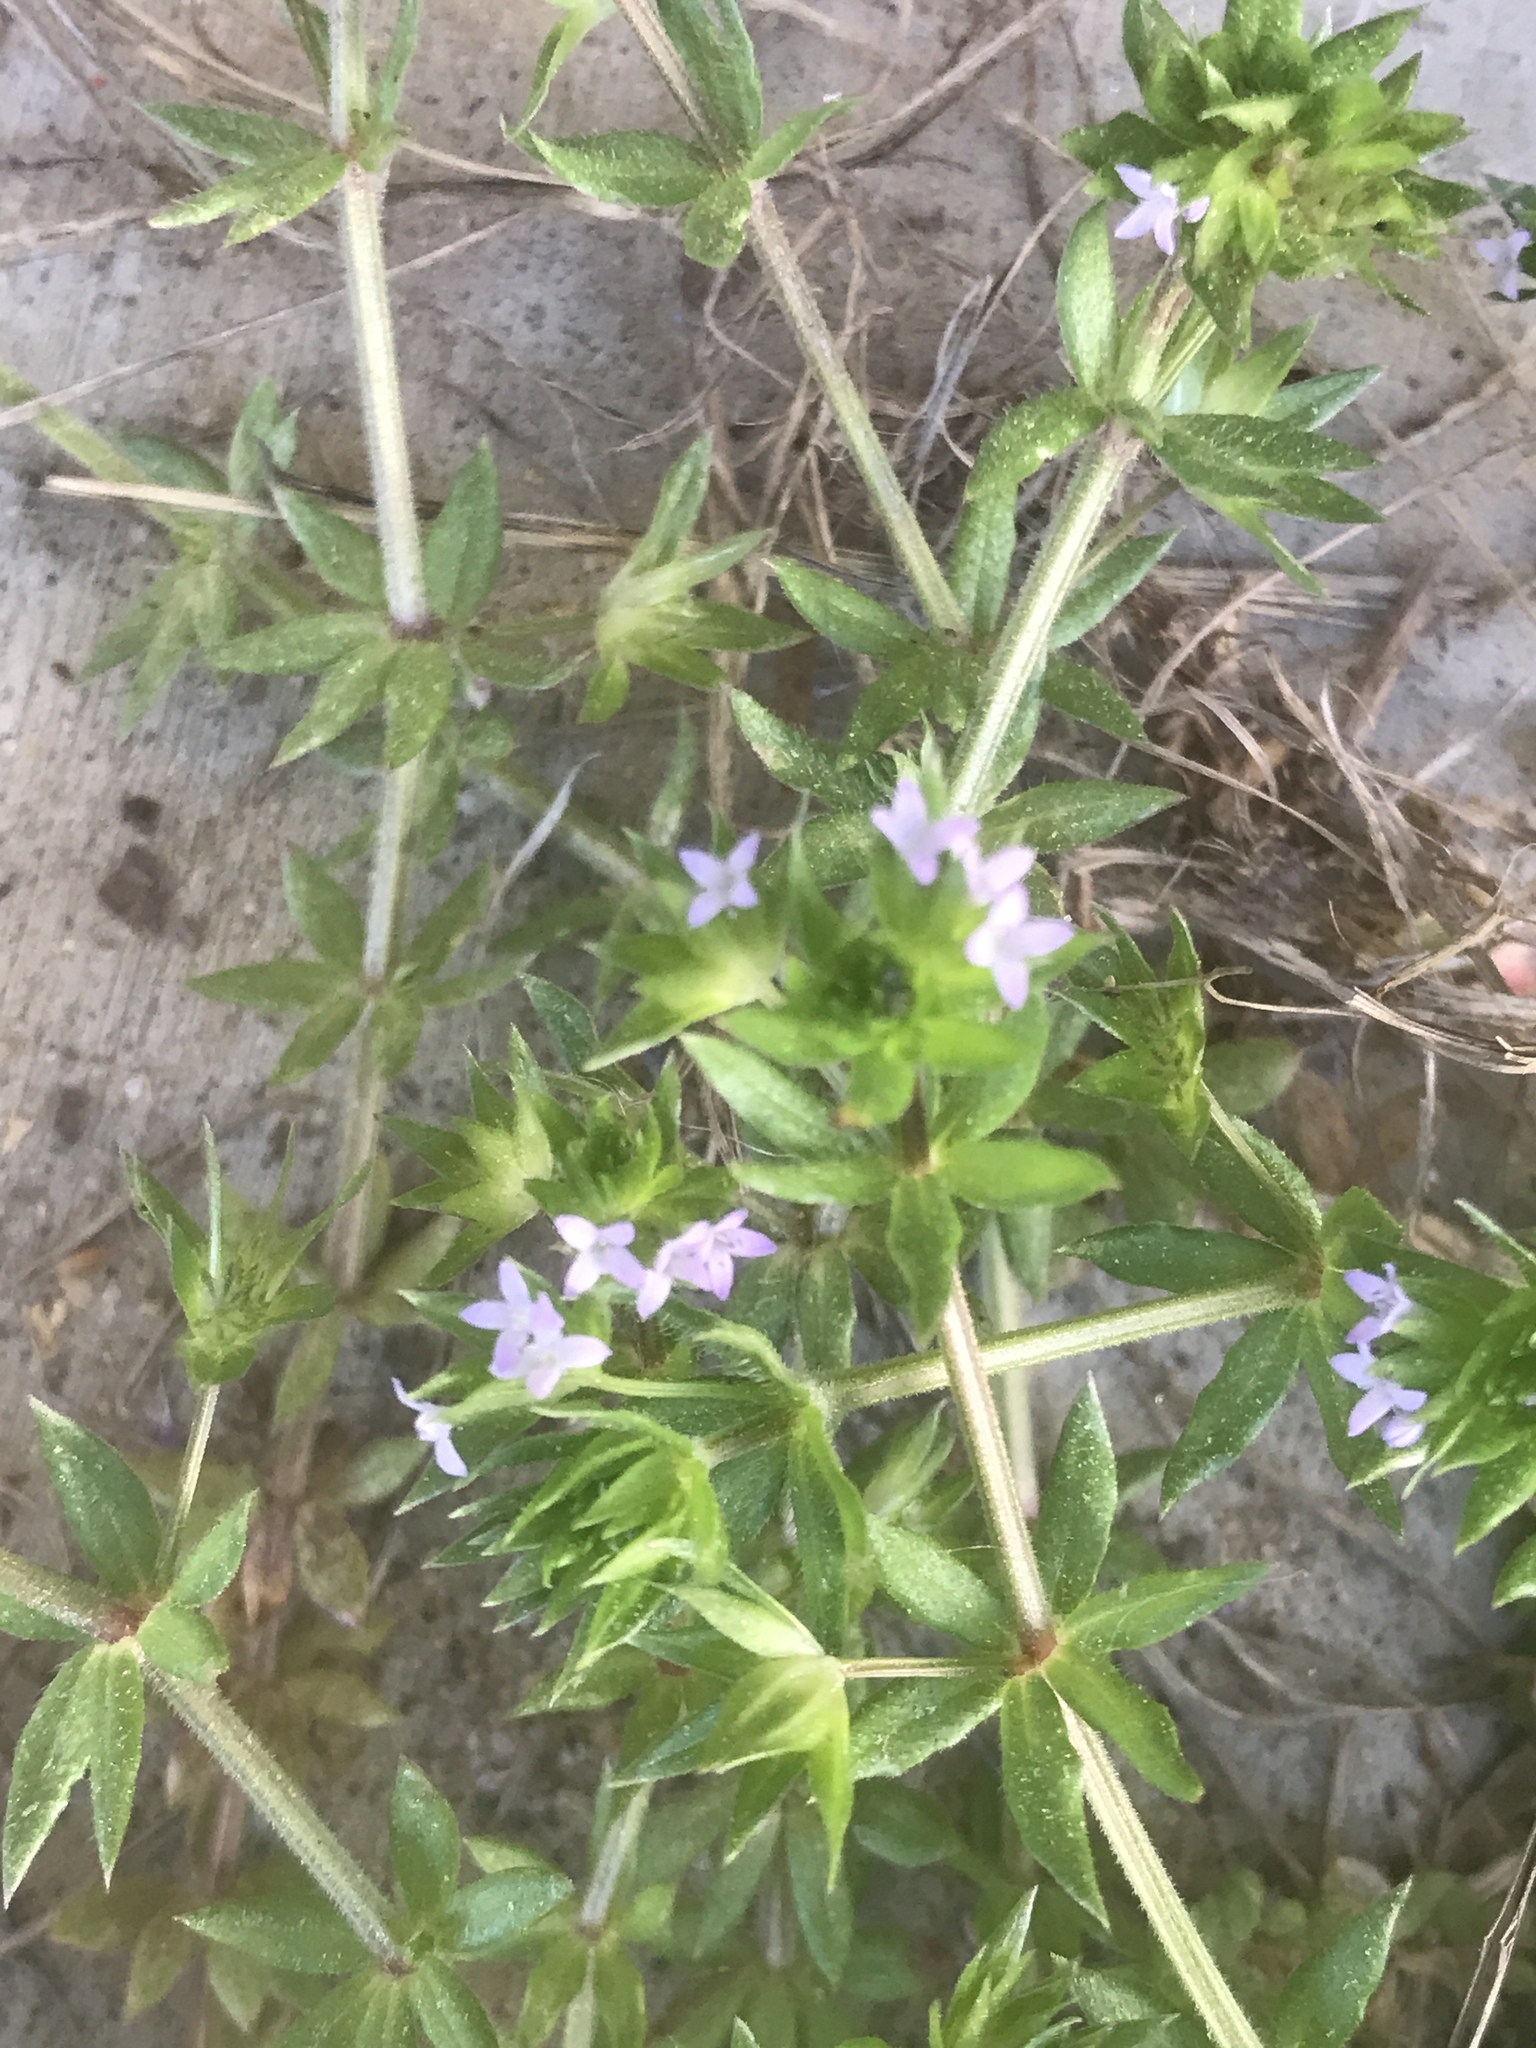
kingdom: Plantae
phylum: Tracheophyta
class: Magnoliopsida
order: Gentianales
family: Rubiaceae
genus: Sherardia
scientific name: Sherardia arvensis
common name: Field madder
